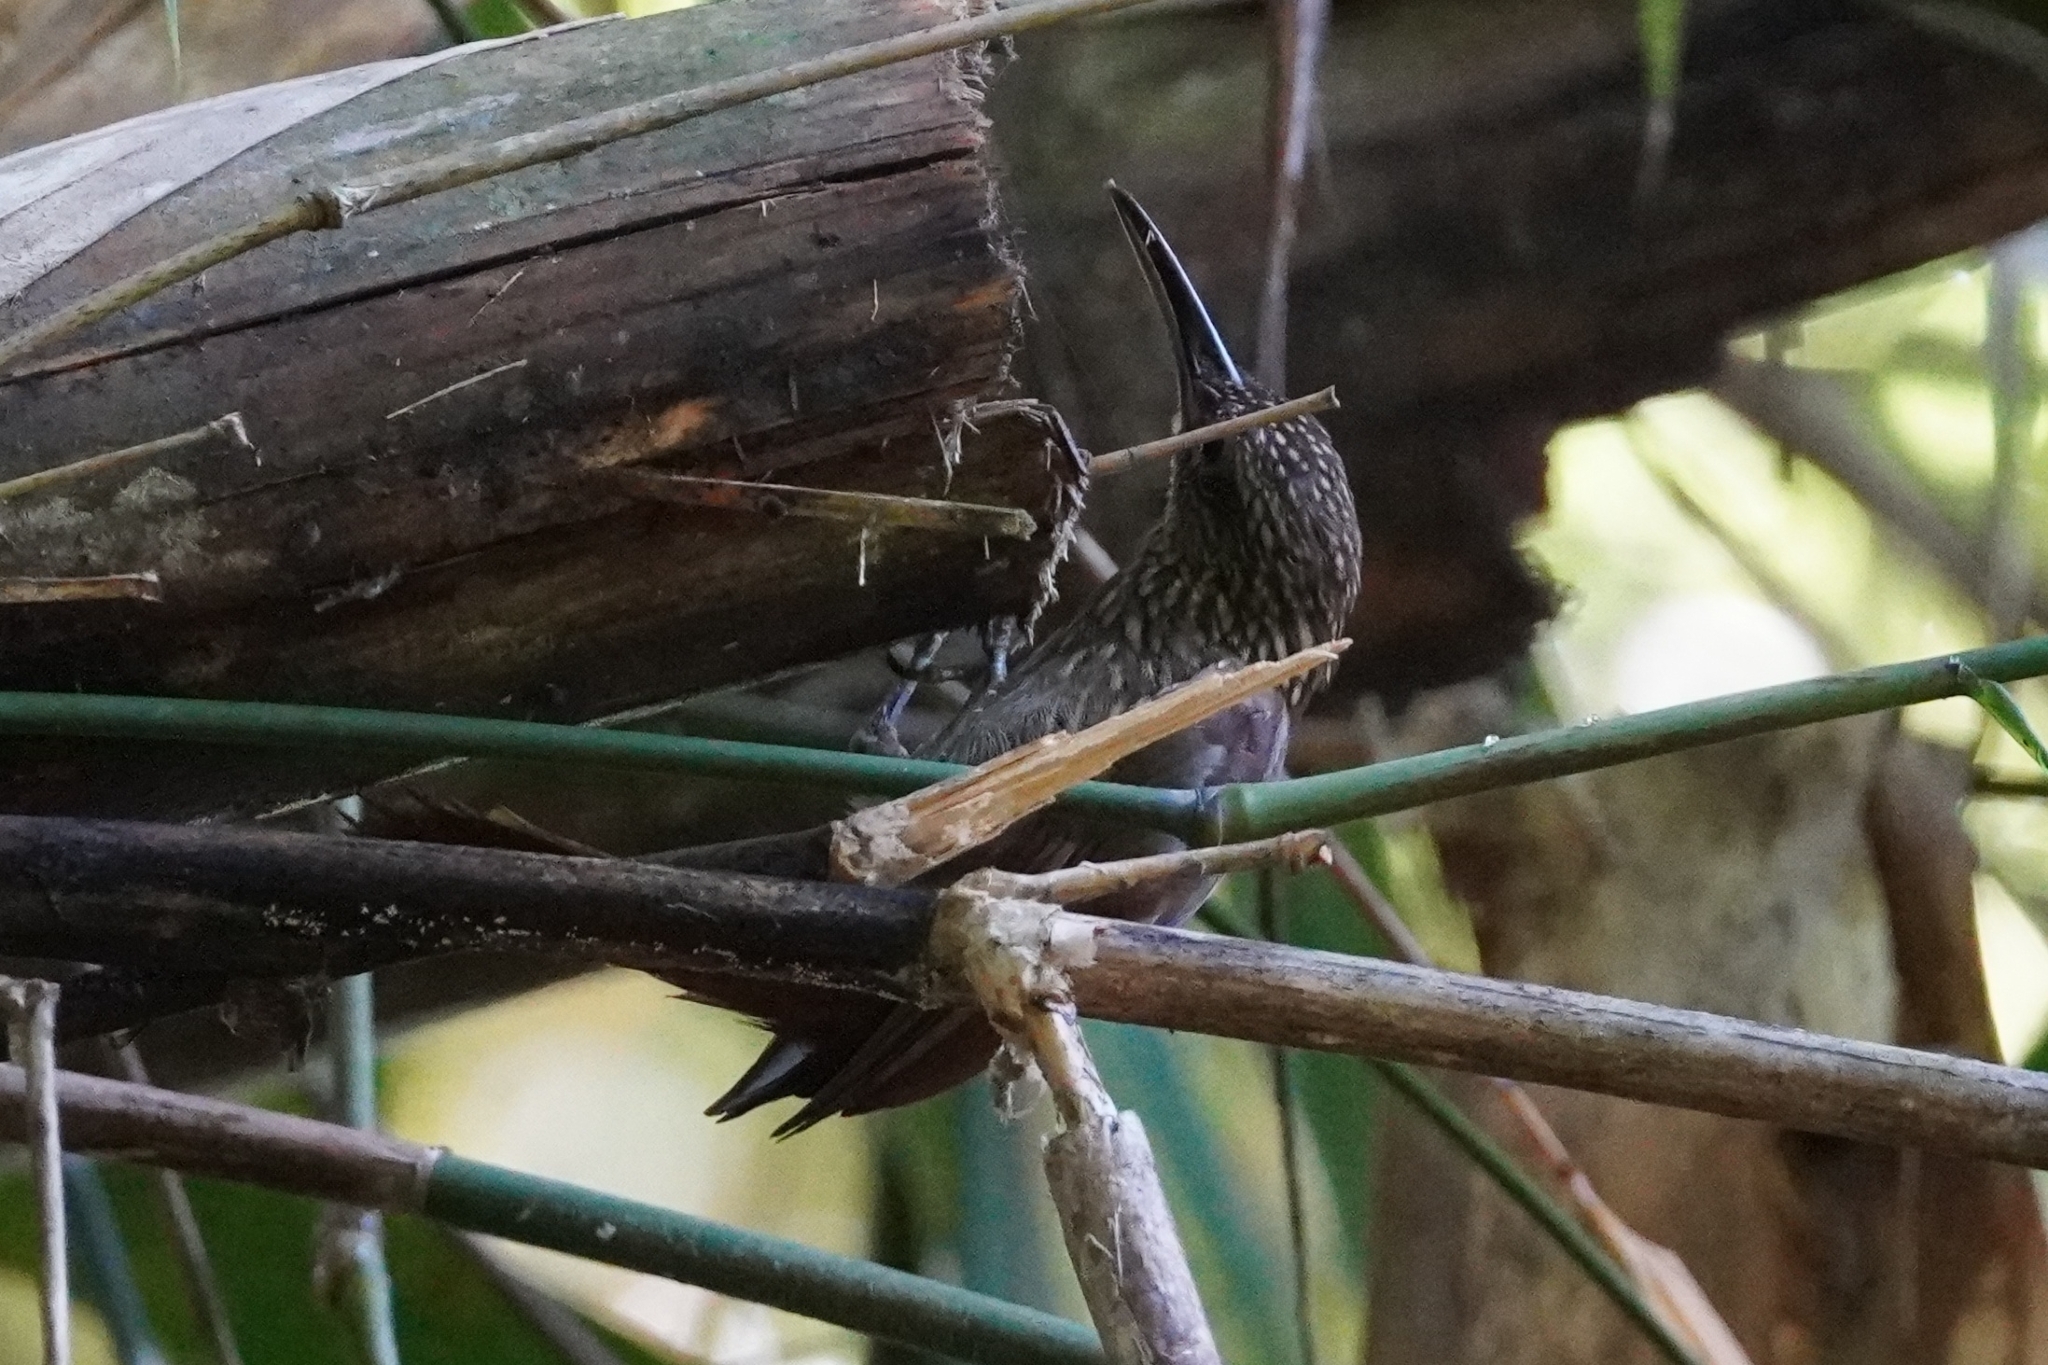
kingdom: Animalia
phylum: Chordata
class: Aves
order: Passeriformes
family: Furnariidae
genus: Xiphorhynchus
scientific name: Xiphorhynchus lachrymosus
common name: Black-striped woodcreeper
